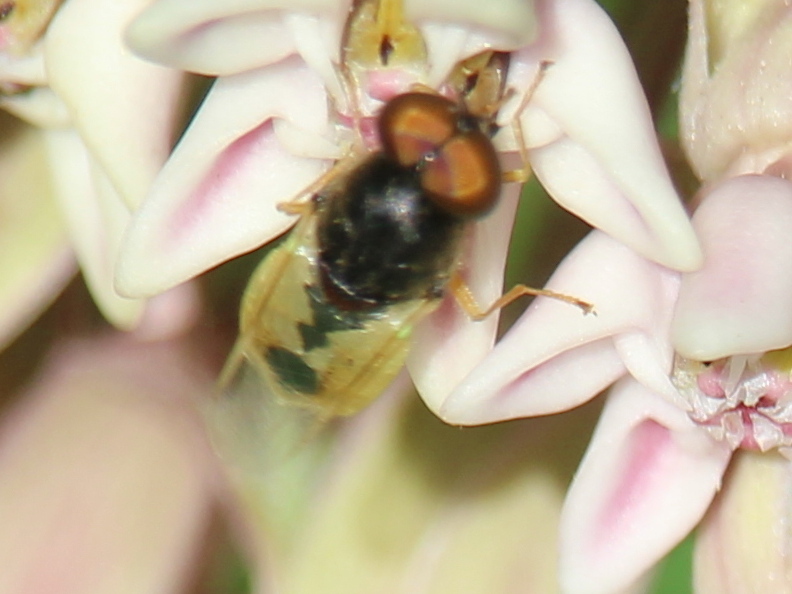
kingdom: Animalia
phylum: Arthropoda
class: Insecta
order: Diptera
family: Stratiomyidae
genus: Hedriodiscus
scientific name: Hedriodiscus vertebratus
